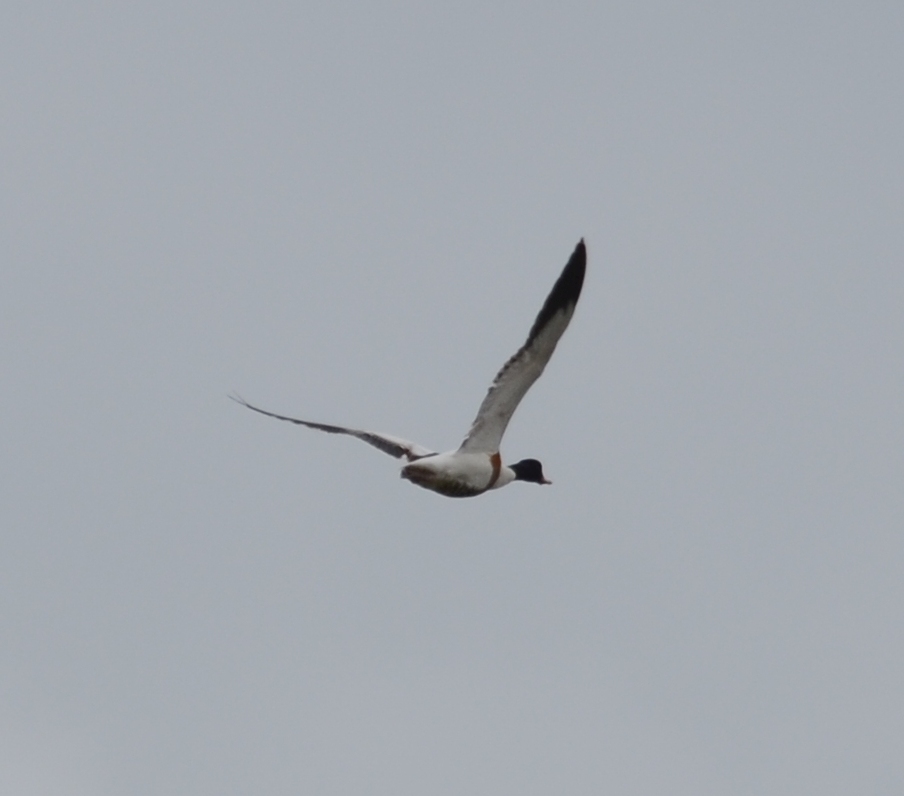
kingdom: Animalia
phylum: Chordata
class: Aves
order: Anseriformes
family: Anatidae
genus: Tadorna
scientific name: Tadorna tadorna
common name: Common shelduck
